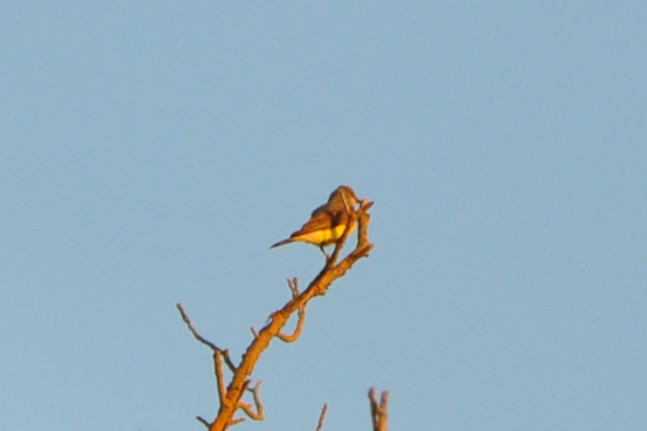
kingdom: Animalia
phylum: Chordata
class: Aves
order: Passeriformes
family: Tyrannidae
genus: Tyrannus
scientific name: Tyrannus verticalis
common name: Western kingbird
